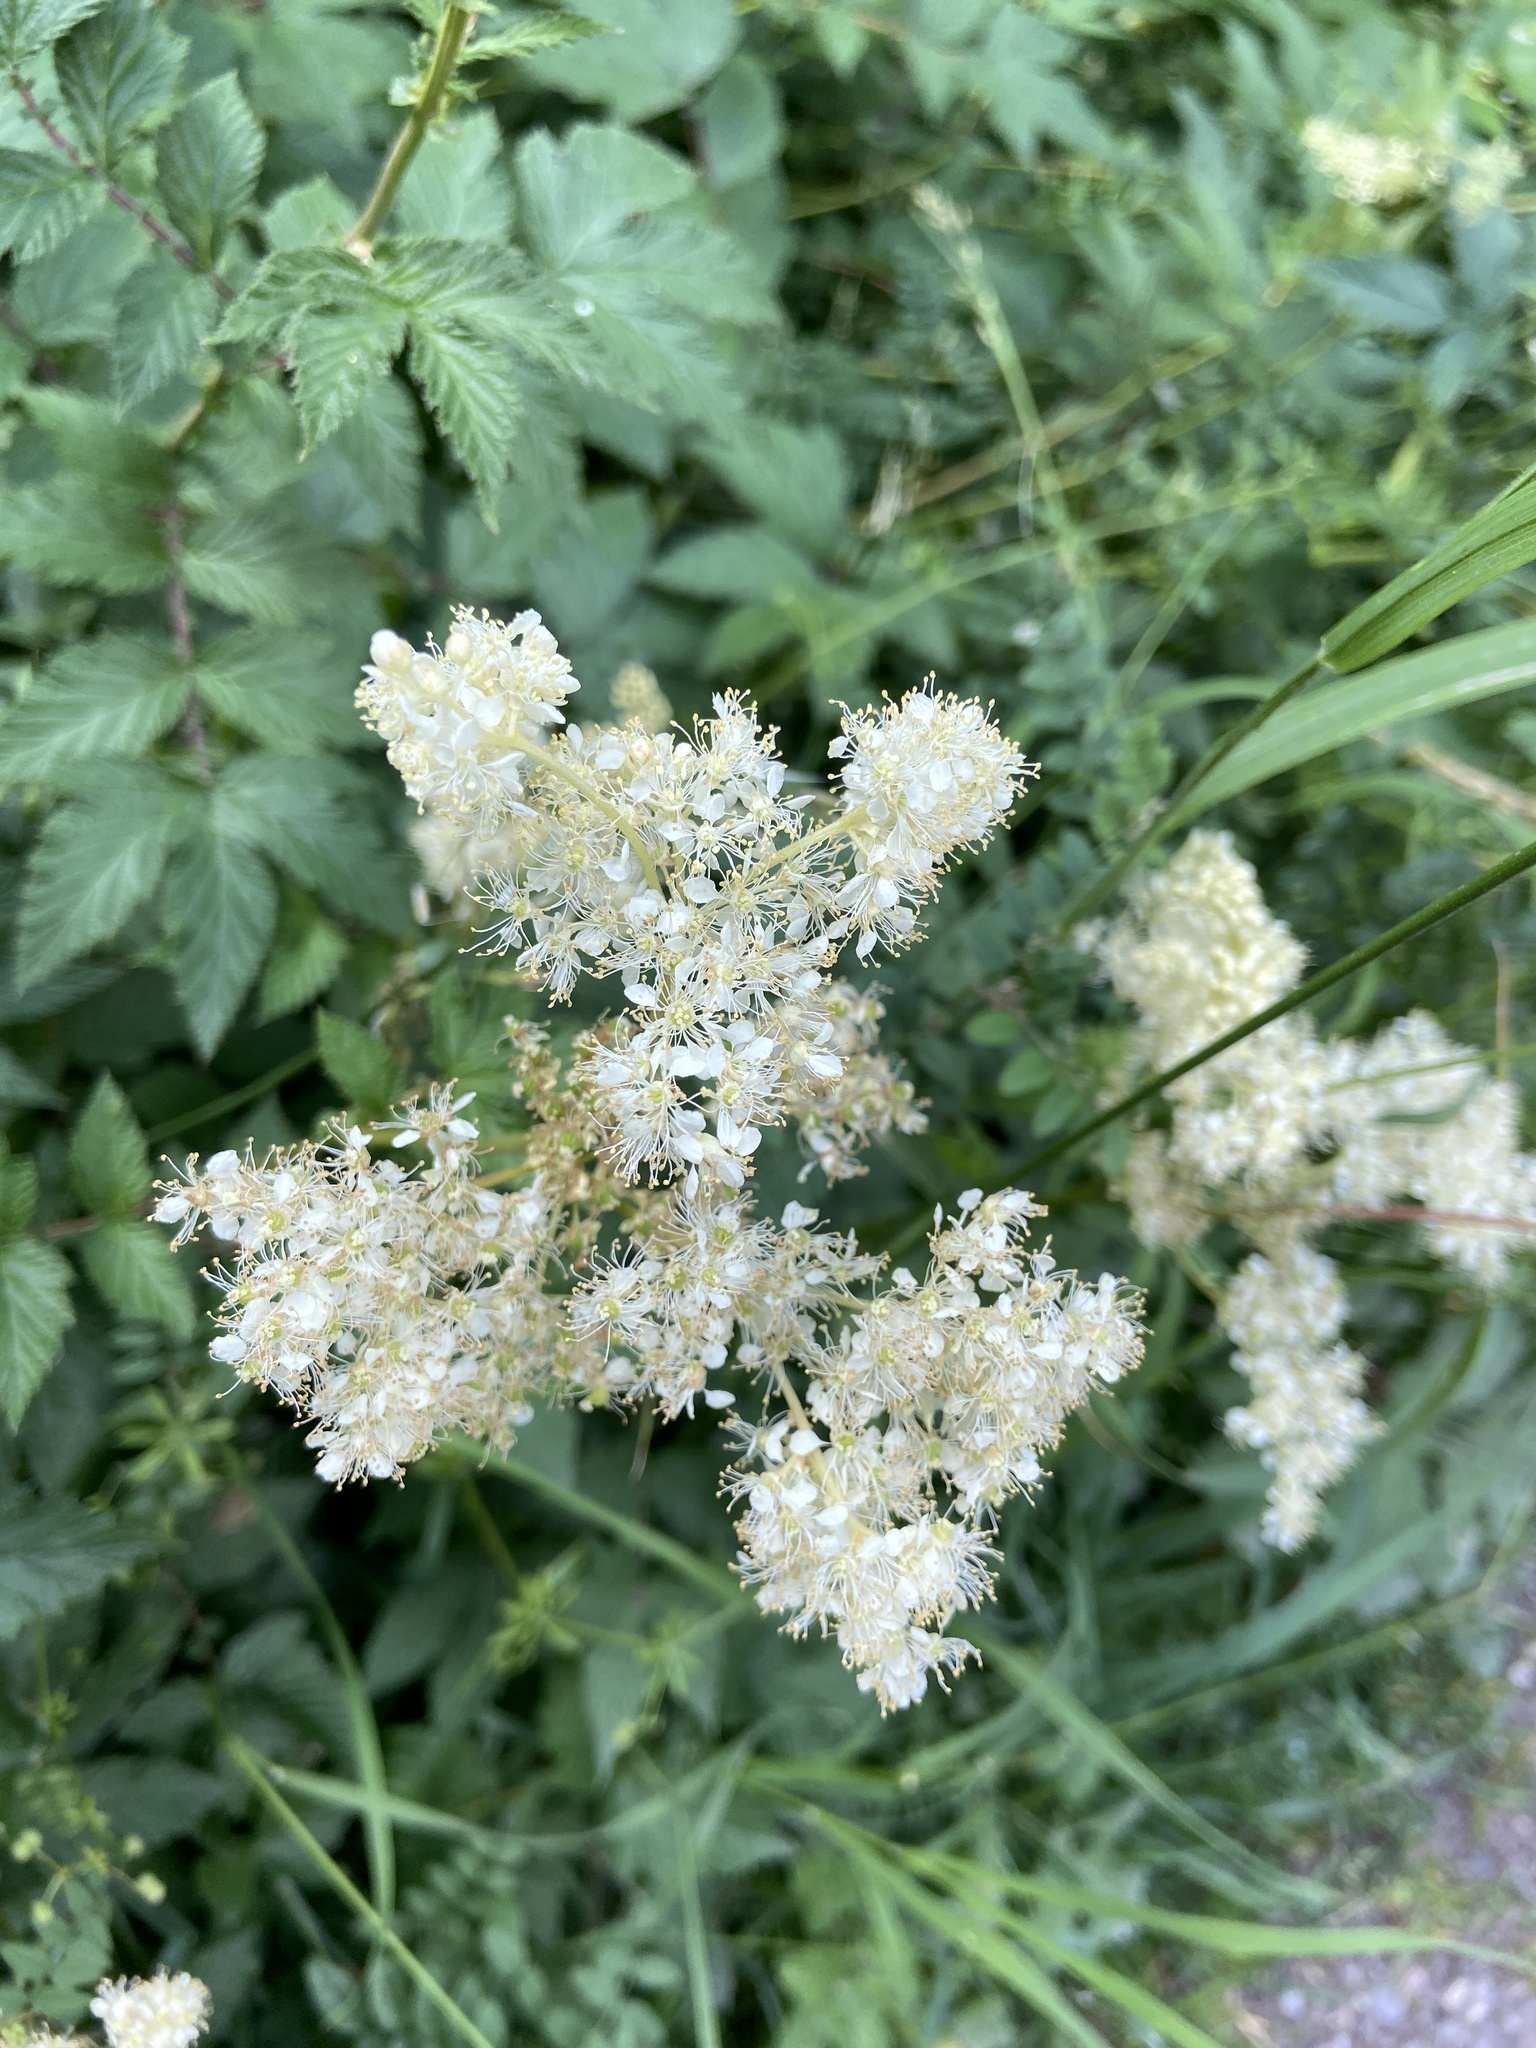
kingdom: Plantae
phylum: Tracheophyta
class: Magnoliopsida
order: Rosales
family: Rosaceae
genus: Filipendula
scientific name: Filipendula ulmaria
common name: Meadowsweet
